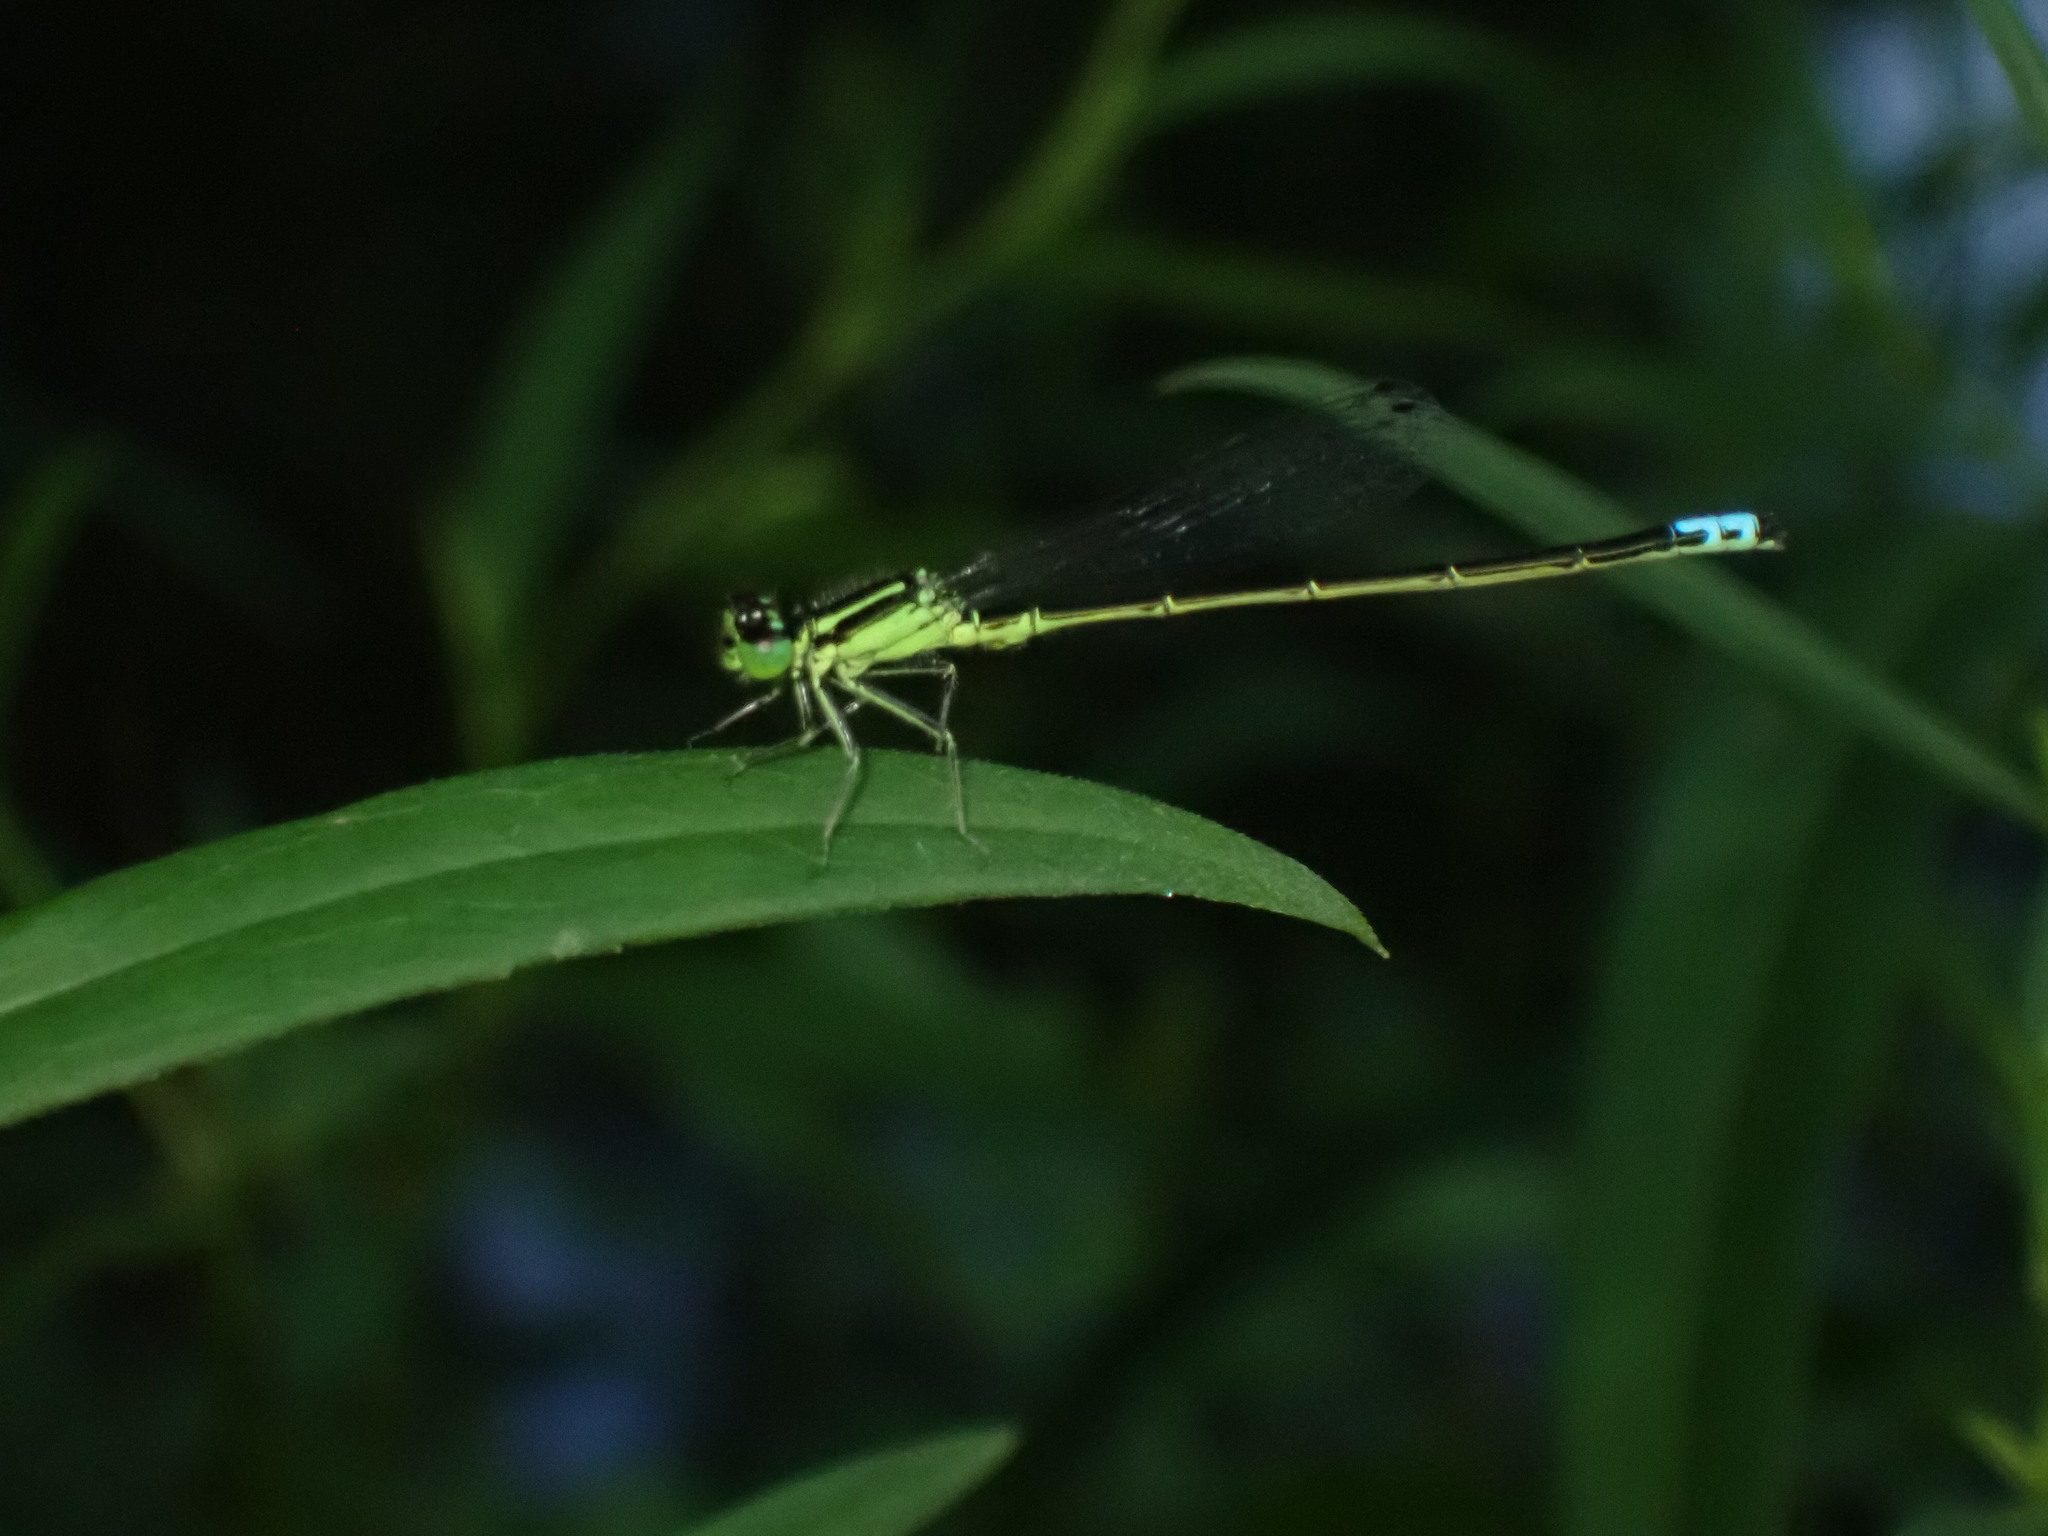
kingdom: Animalia
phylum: Arthropoda
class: Insecta
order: Odonata
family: Coenagrionidae
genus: Ischnura
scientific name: Ischnura verticalis
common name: Eastern forktail
